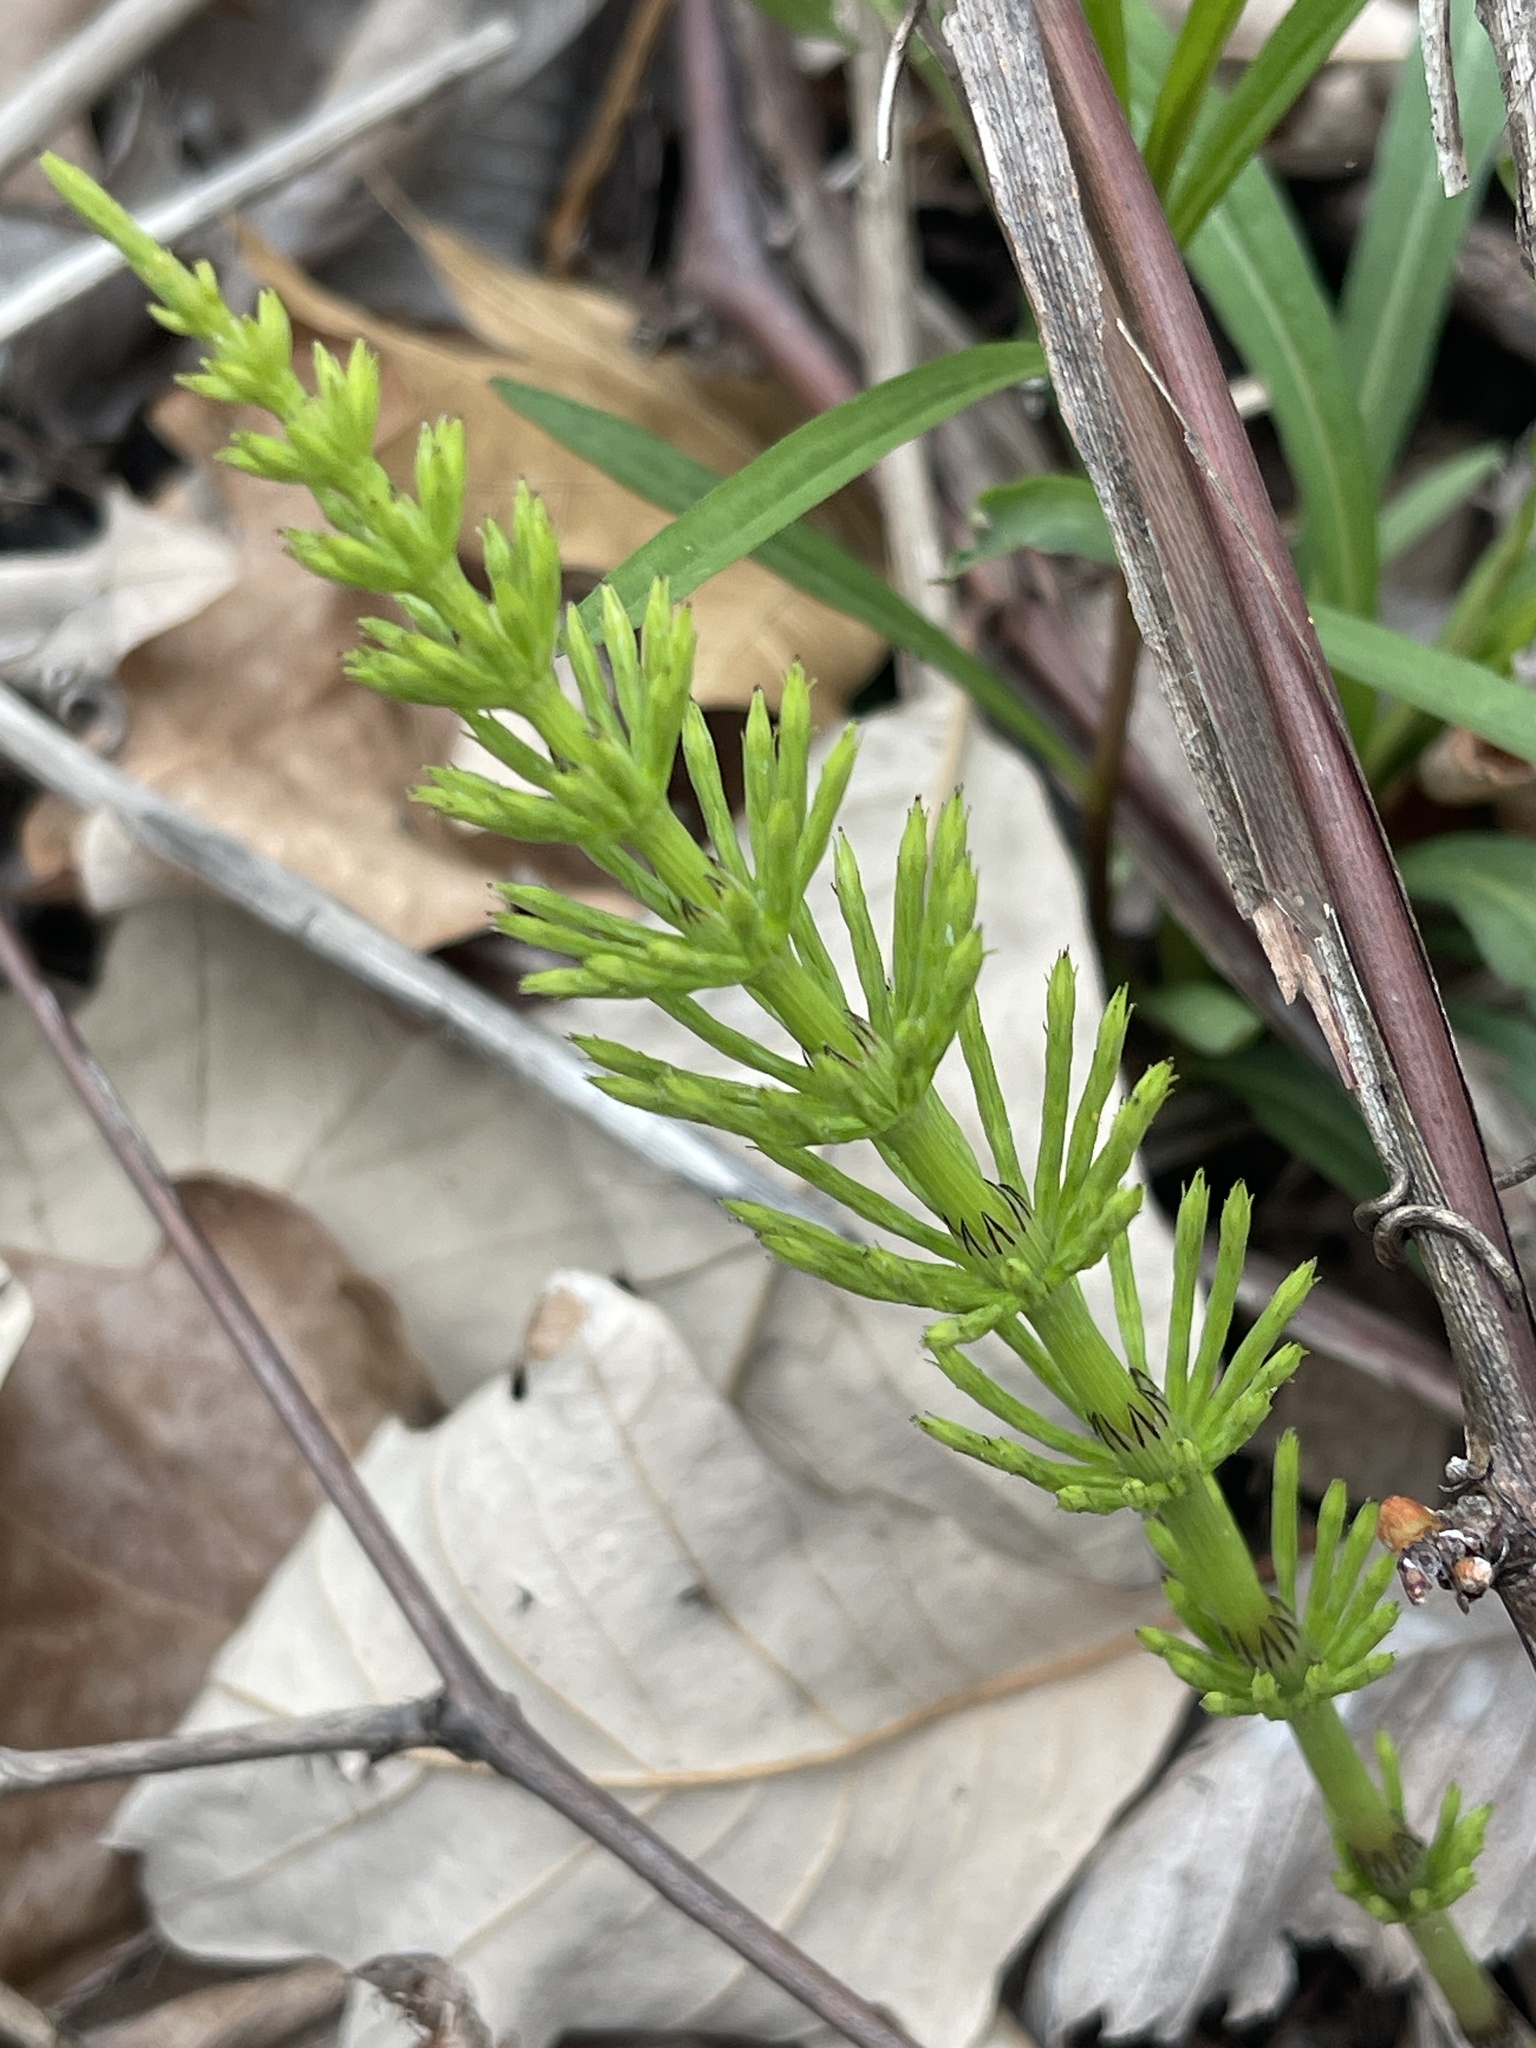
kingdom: Plantae
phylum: Tracheophyta
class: Polypodiopsida
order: Equisetales
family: Equisetaceae
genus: Equisetum
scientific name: Equisetum arvense
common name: Field horsetail
